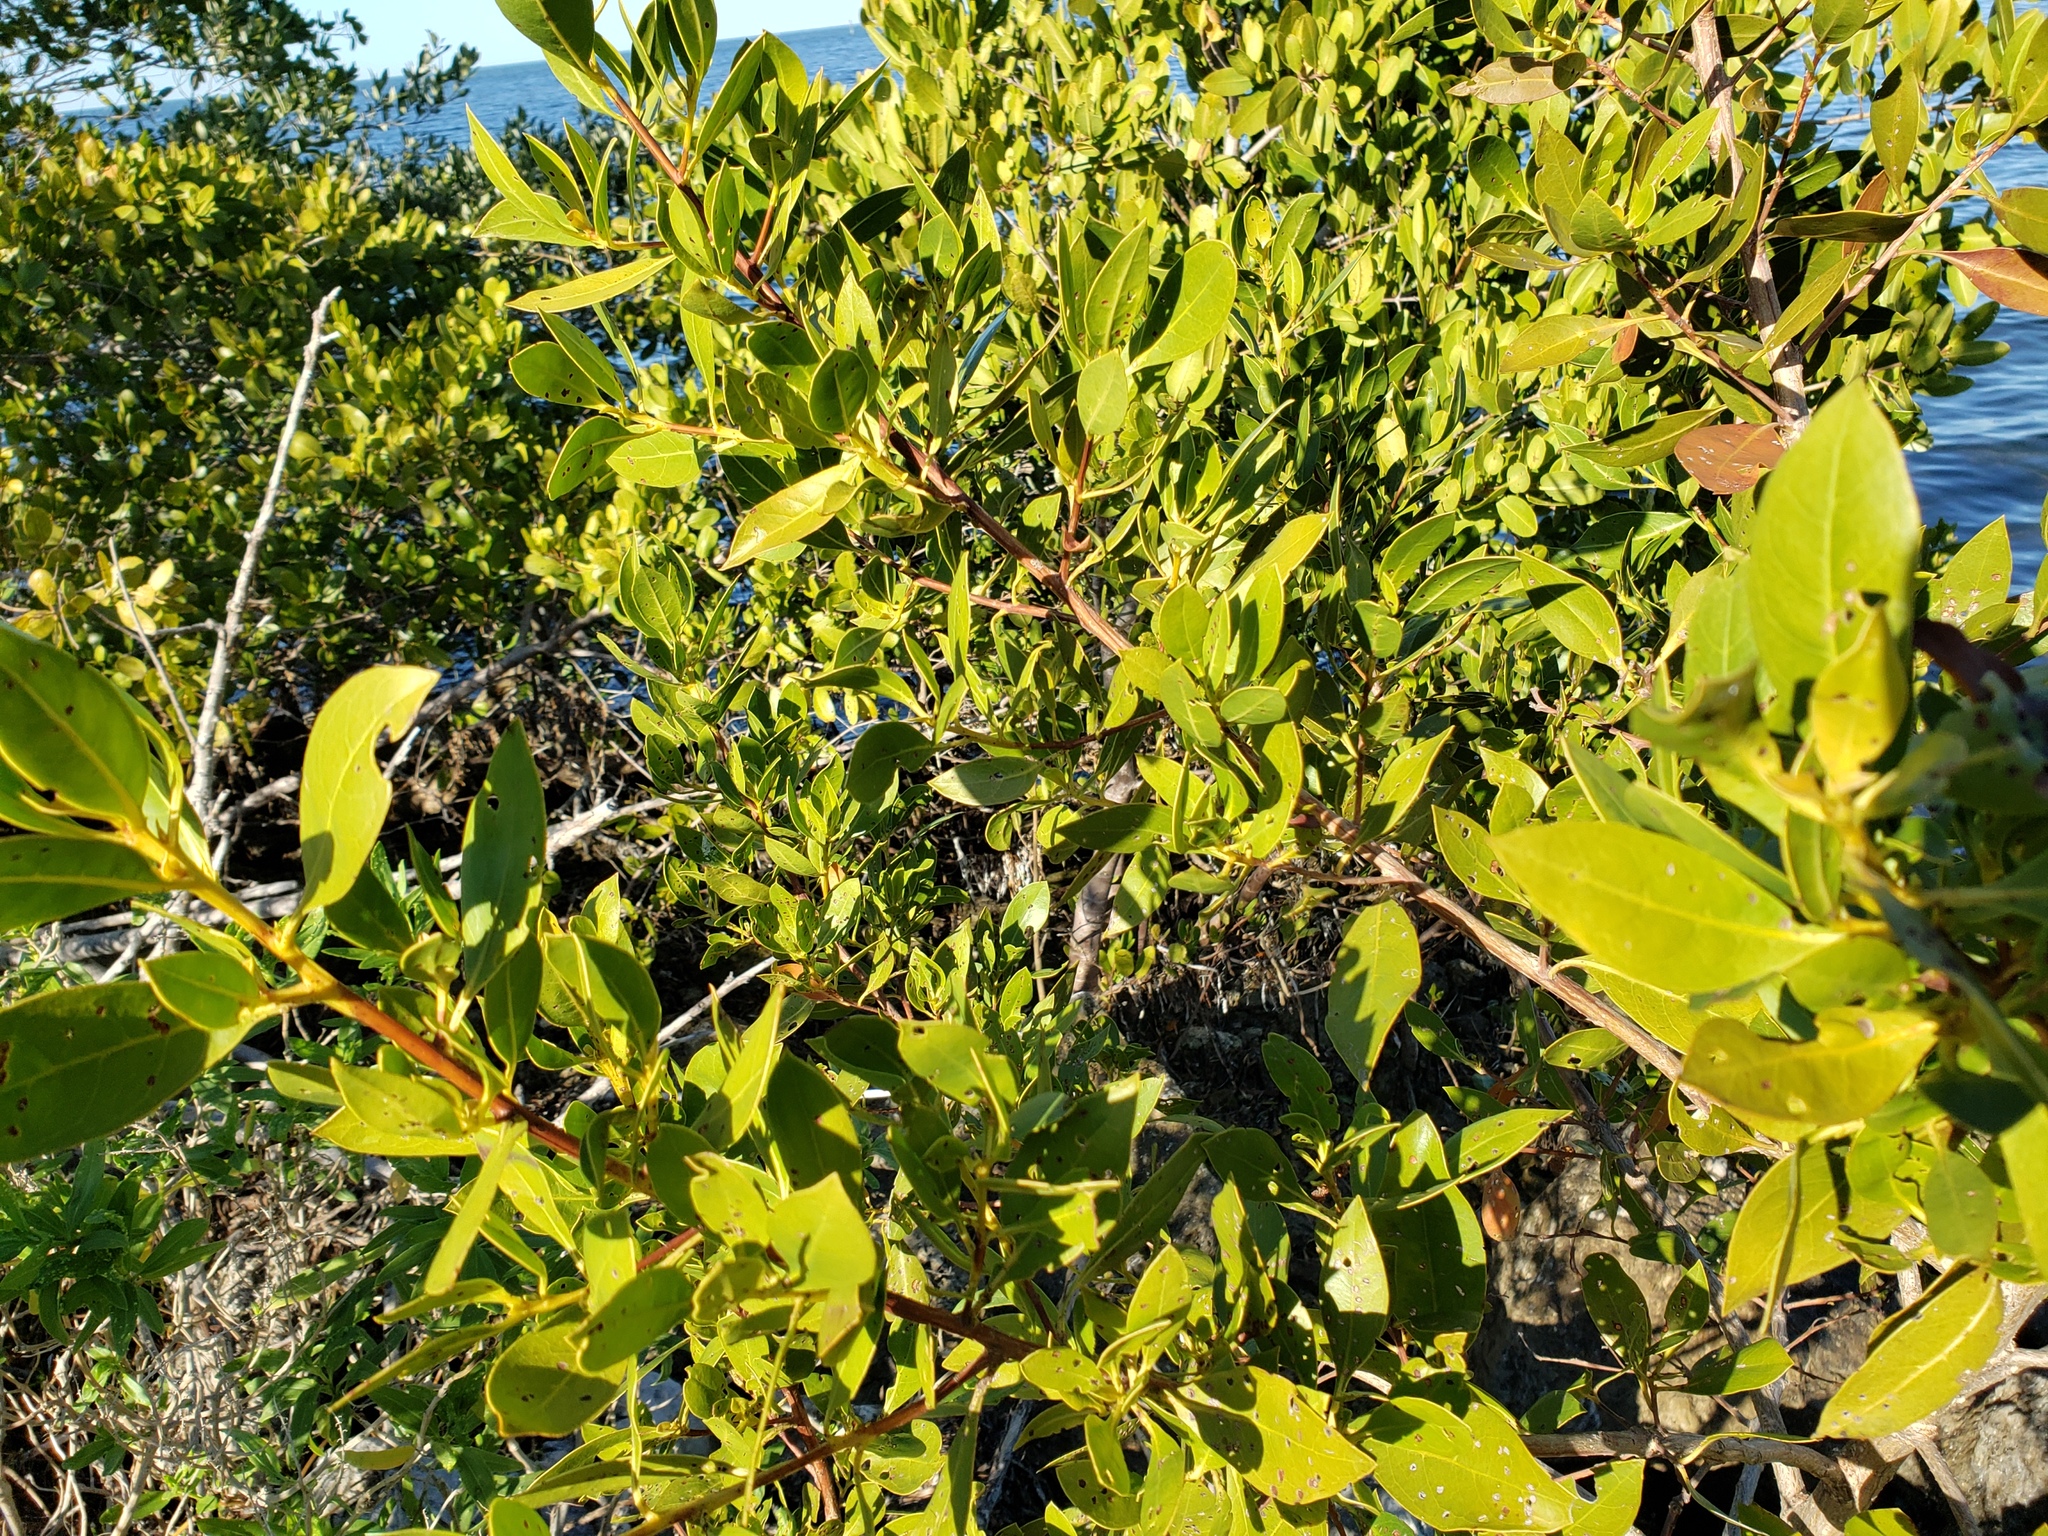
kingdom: Plantae
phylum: Tracheophyta
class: Magnoliopsida
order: Myrtales
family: Combretaceae
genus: Conocarpus
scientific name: Conocarpus erectus
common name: Button mangrove
